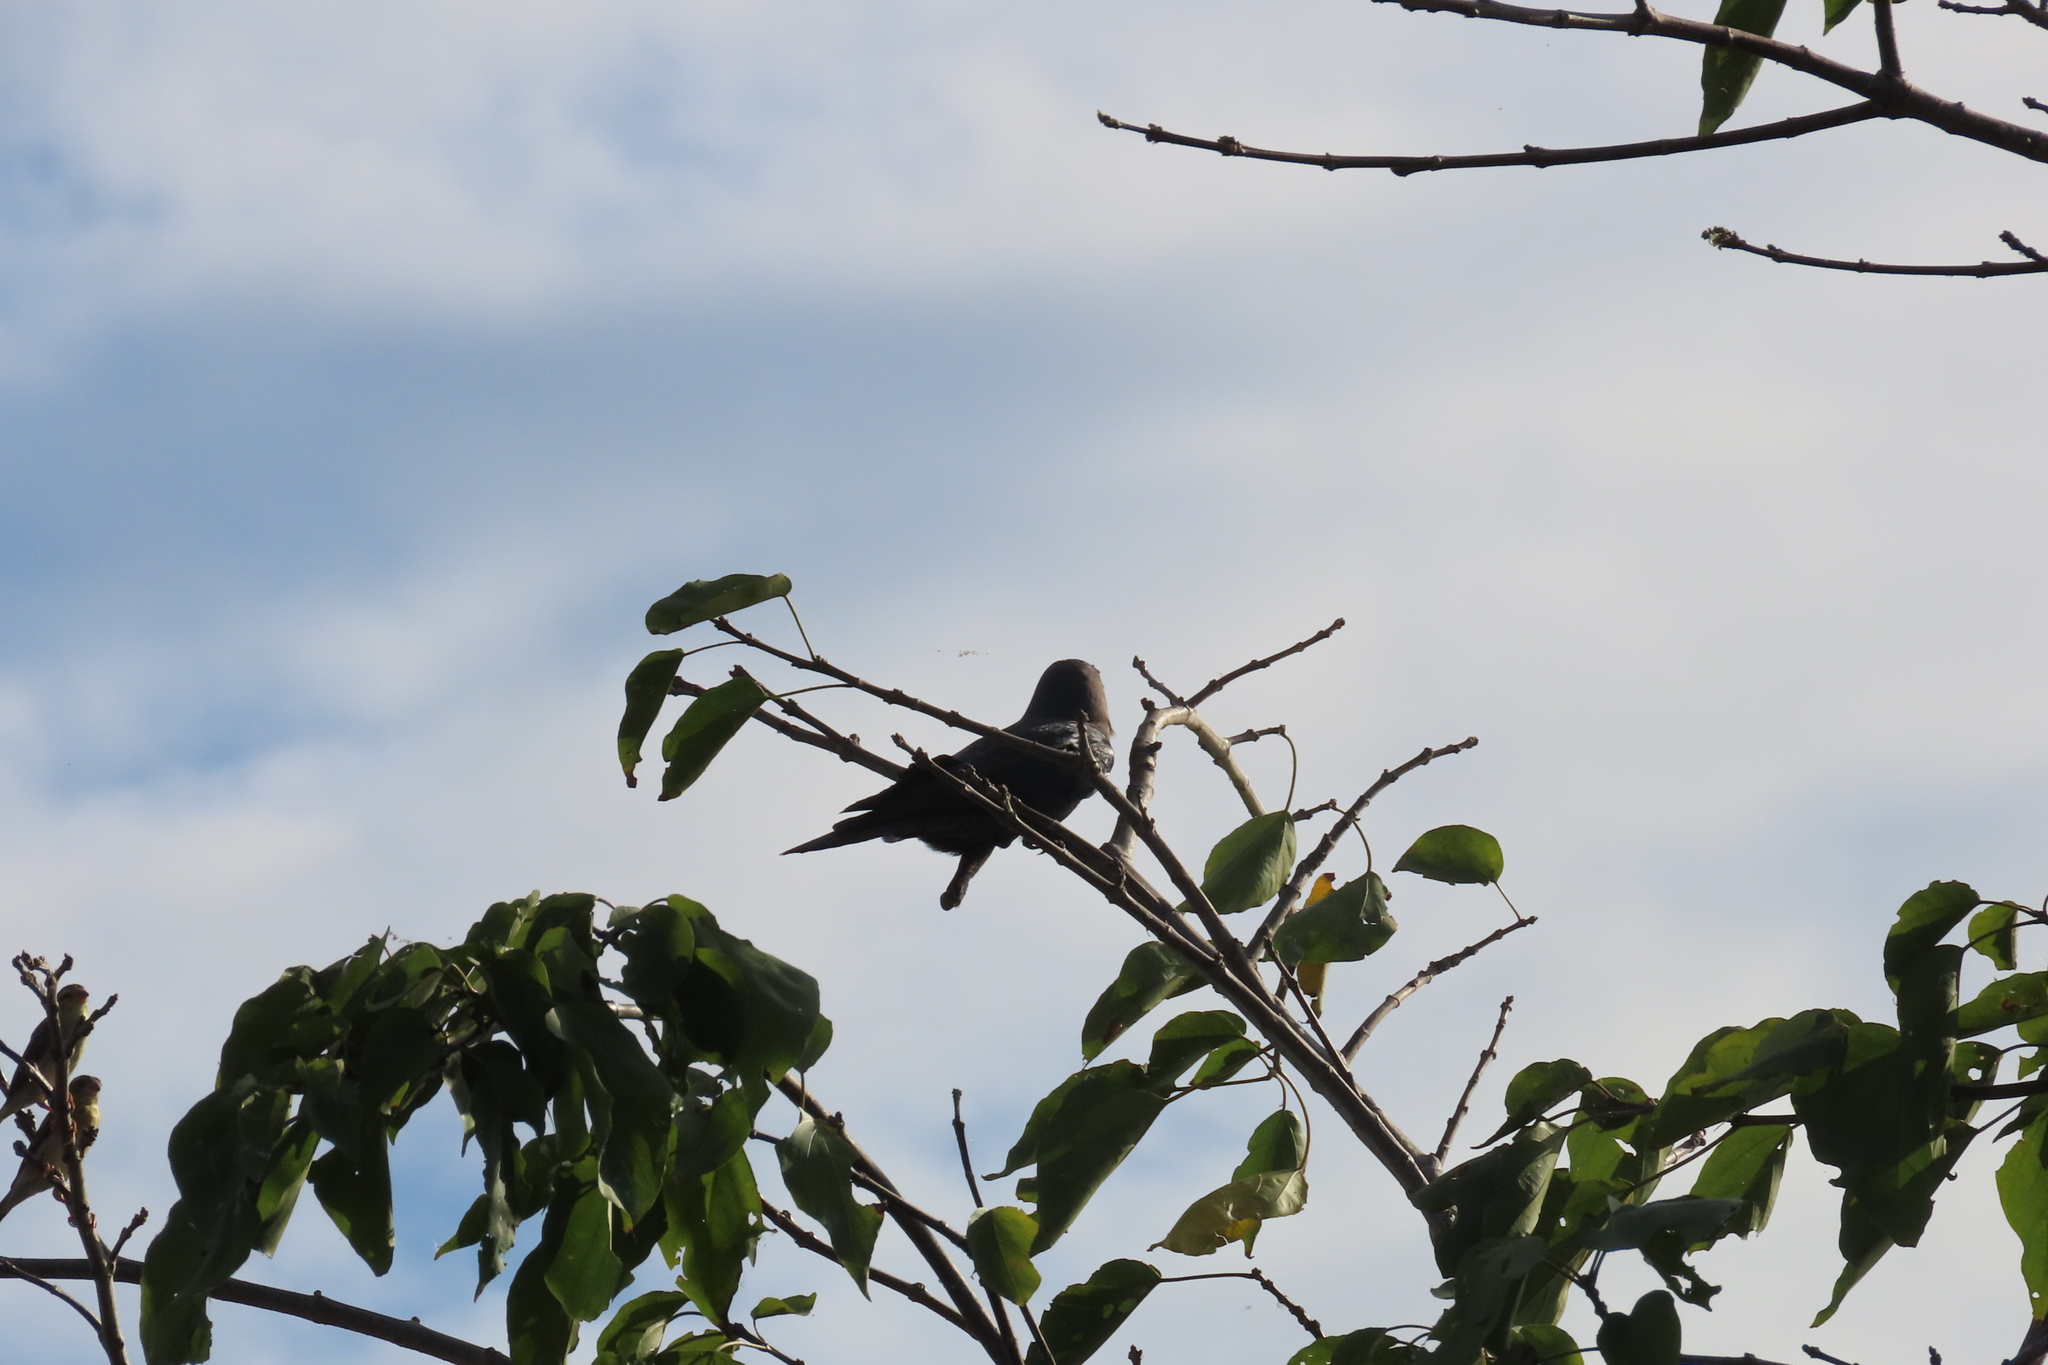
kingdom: Animalia
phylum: Chordata
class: Aves
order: Passeriformes
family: Corvidae
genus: Corvus
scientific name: Corvus splendens
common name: House crow
